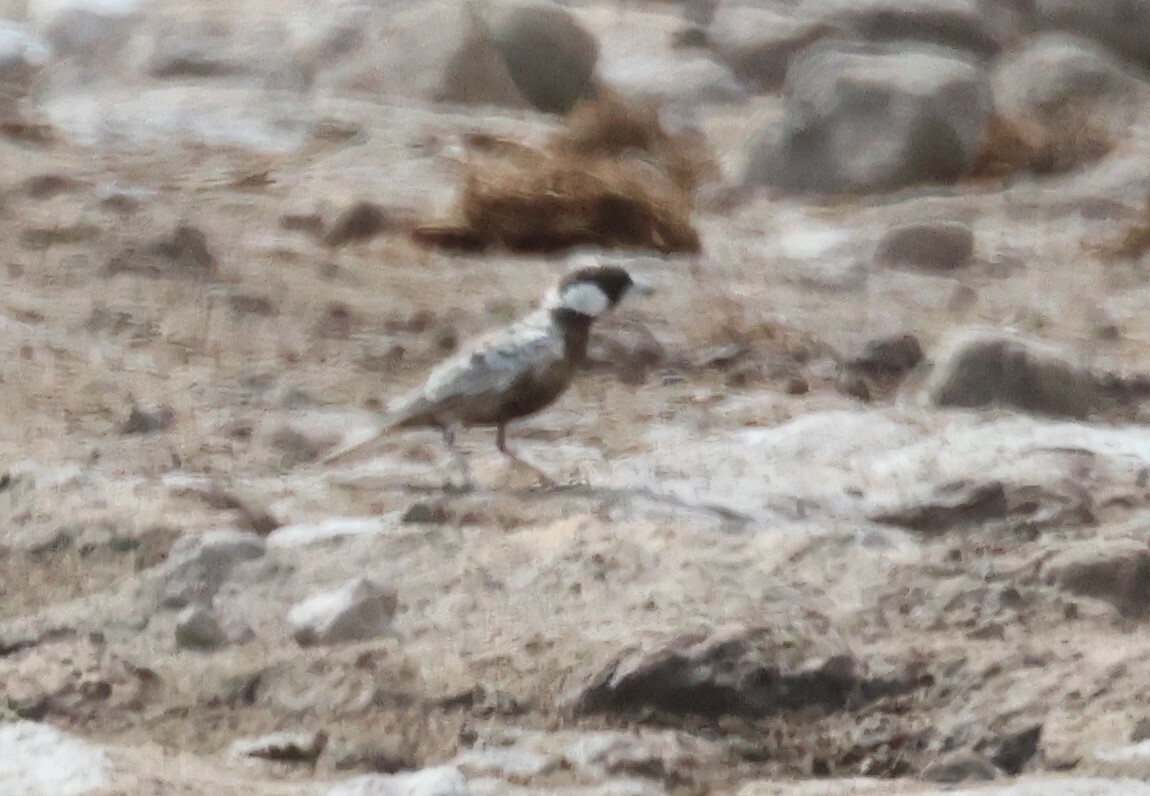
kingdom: Animalia
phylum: Chordata
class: Aves
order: Passeriformes
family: Alaudidae
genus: Eremopterix
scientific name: Eremopterix verticalis
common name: Grey-backed sparrow-lark
